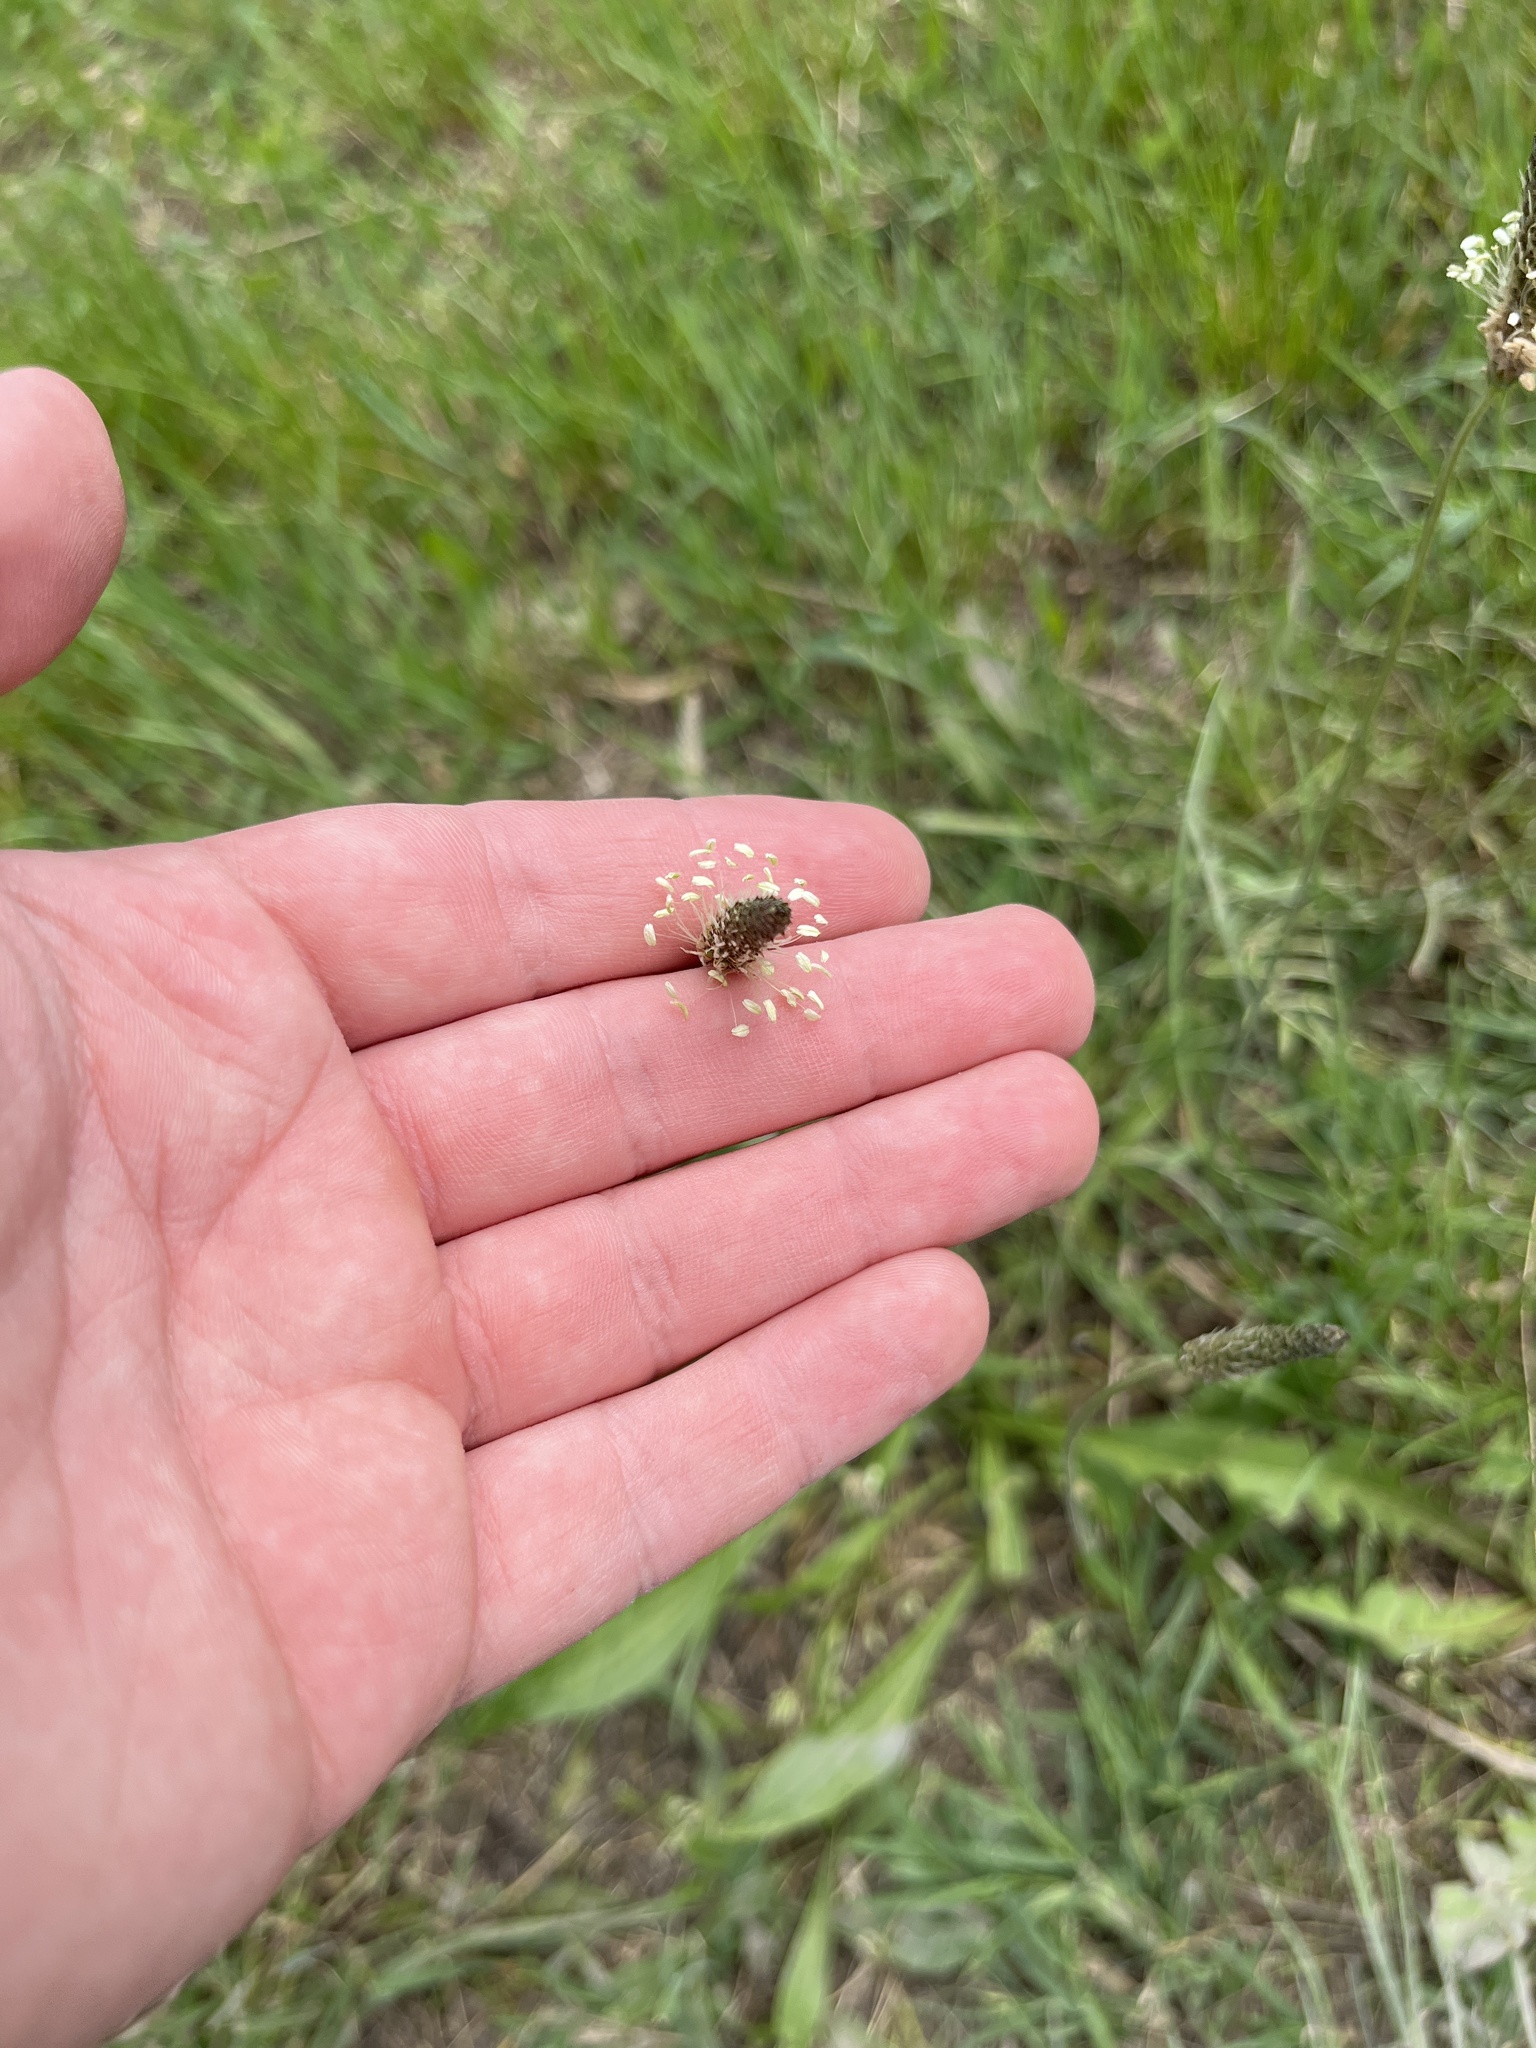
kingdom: Plantae
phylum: Tracheophyta
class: Magnoliopsida
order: Lamiales
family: Plantaginaceae
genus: Plantago
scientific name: Plantago lanceolata
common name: Ribwort plantain
